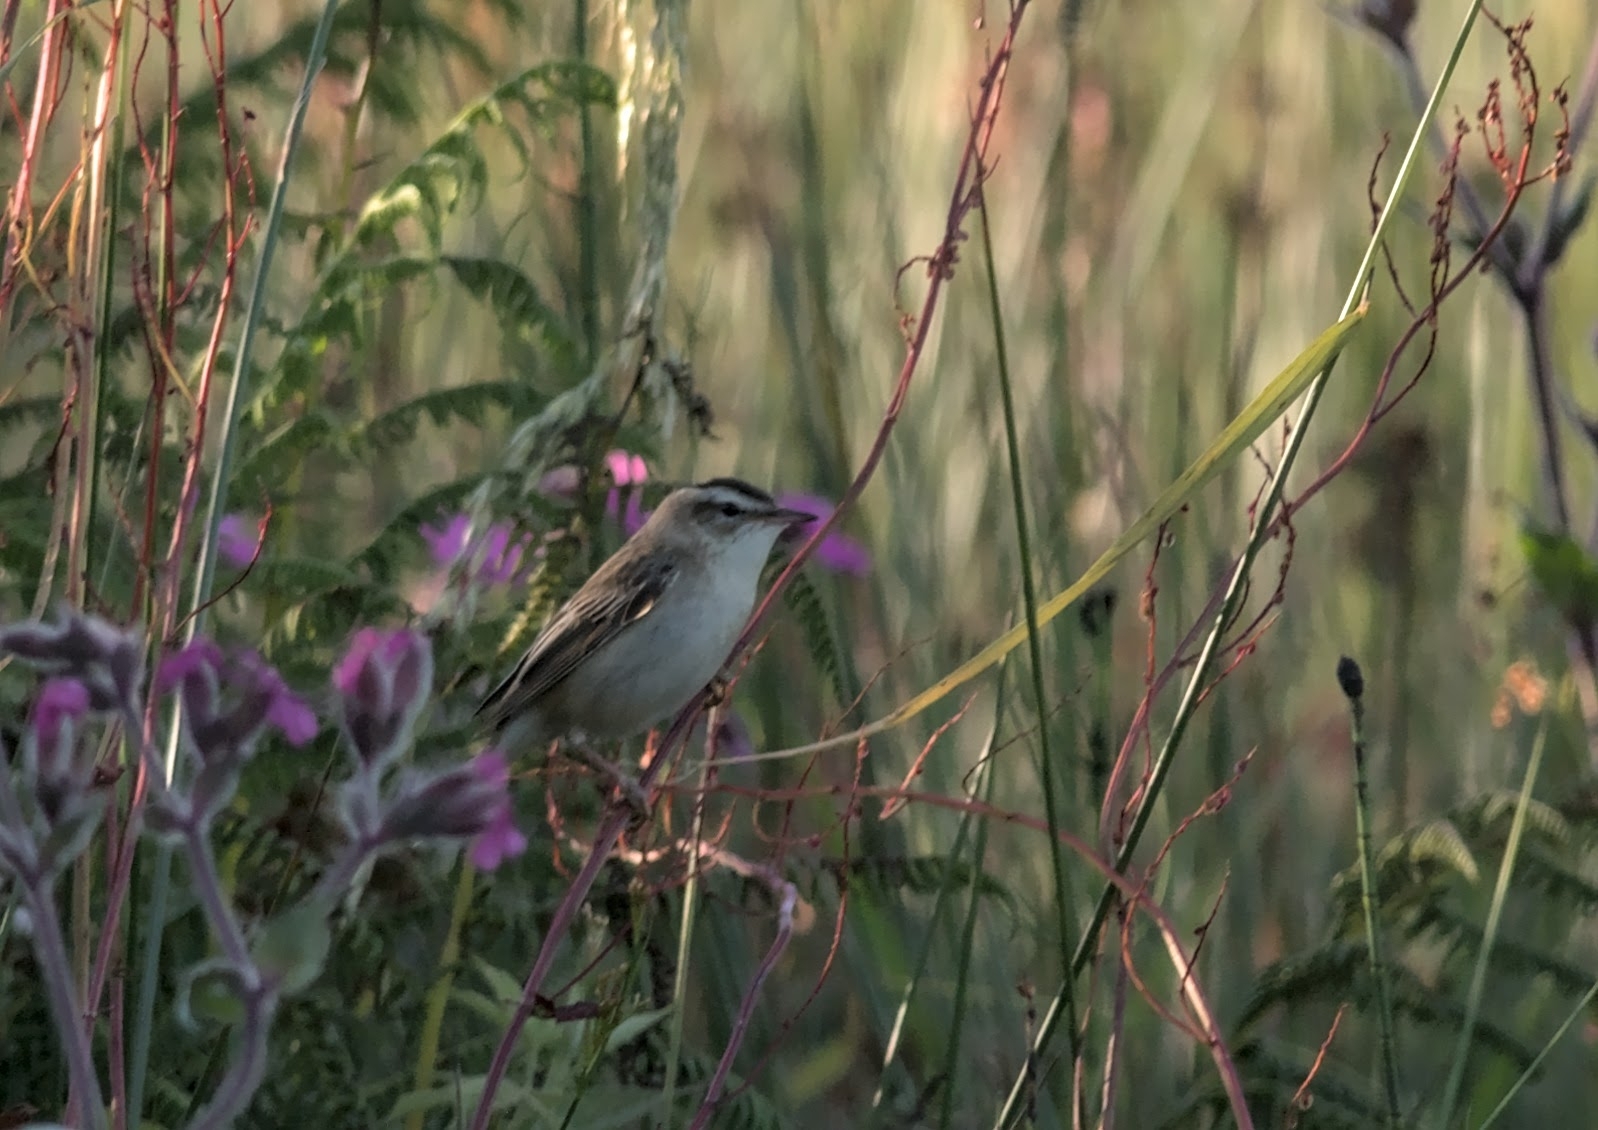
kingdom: Animalia
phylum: Chordata
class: Aves
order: Passeriformes
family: Acrocephalidae
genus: Acrocephalus
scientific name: Acrocephalus schoenobaenus
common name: Sedge warbler
